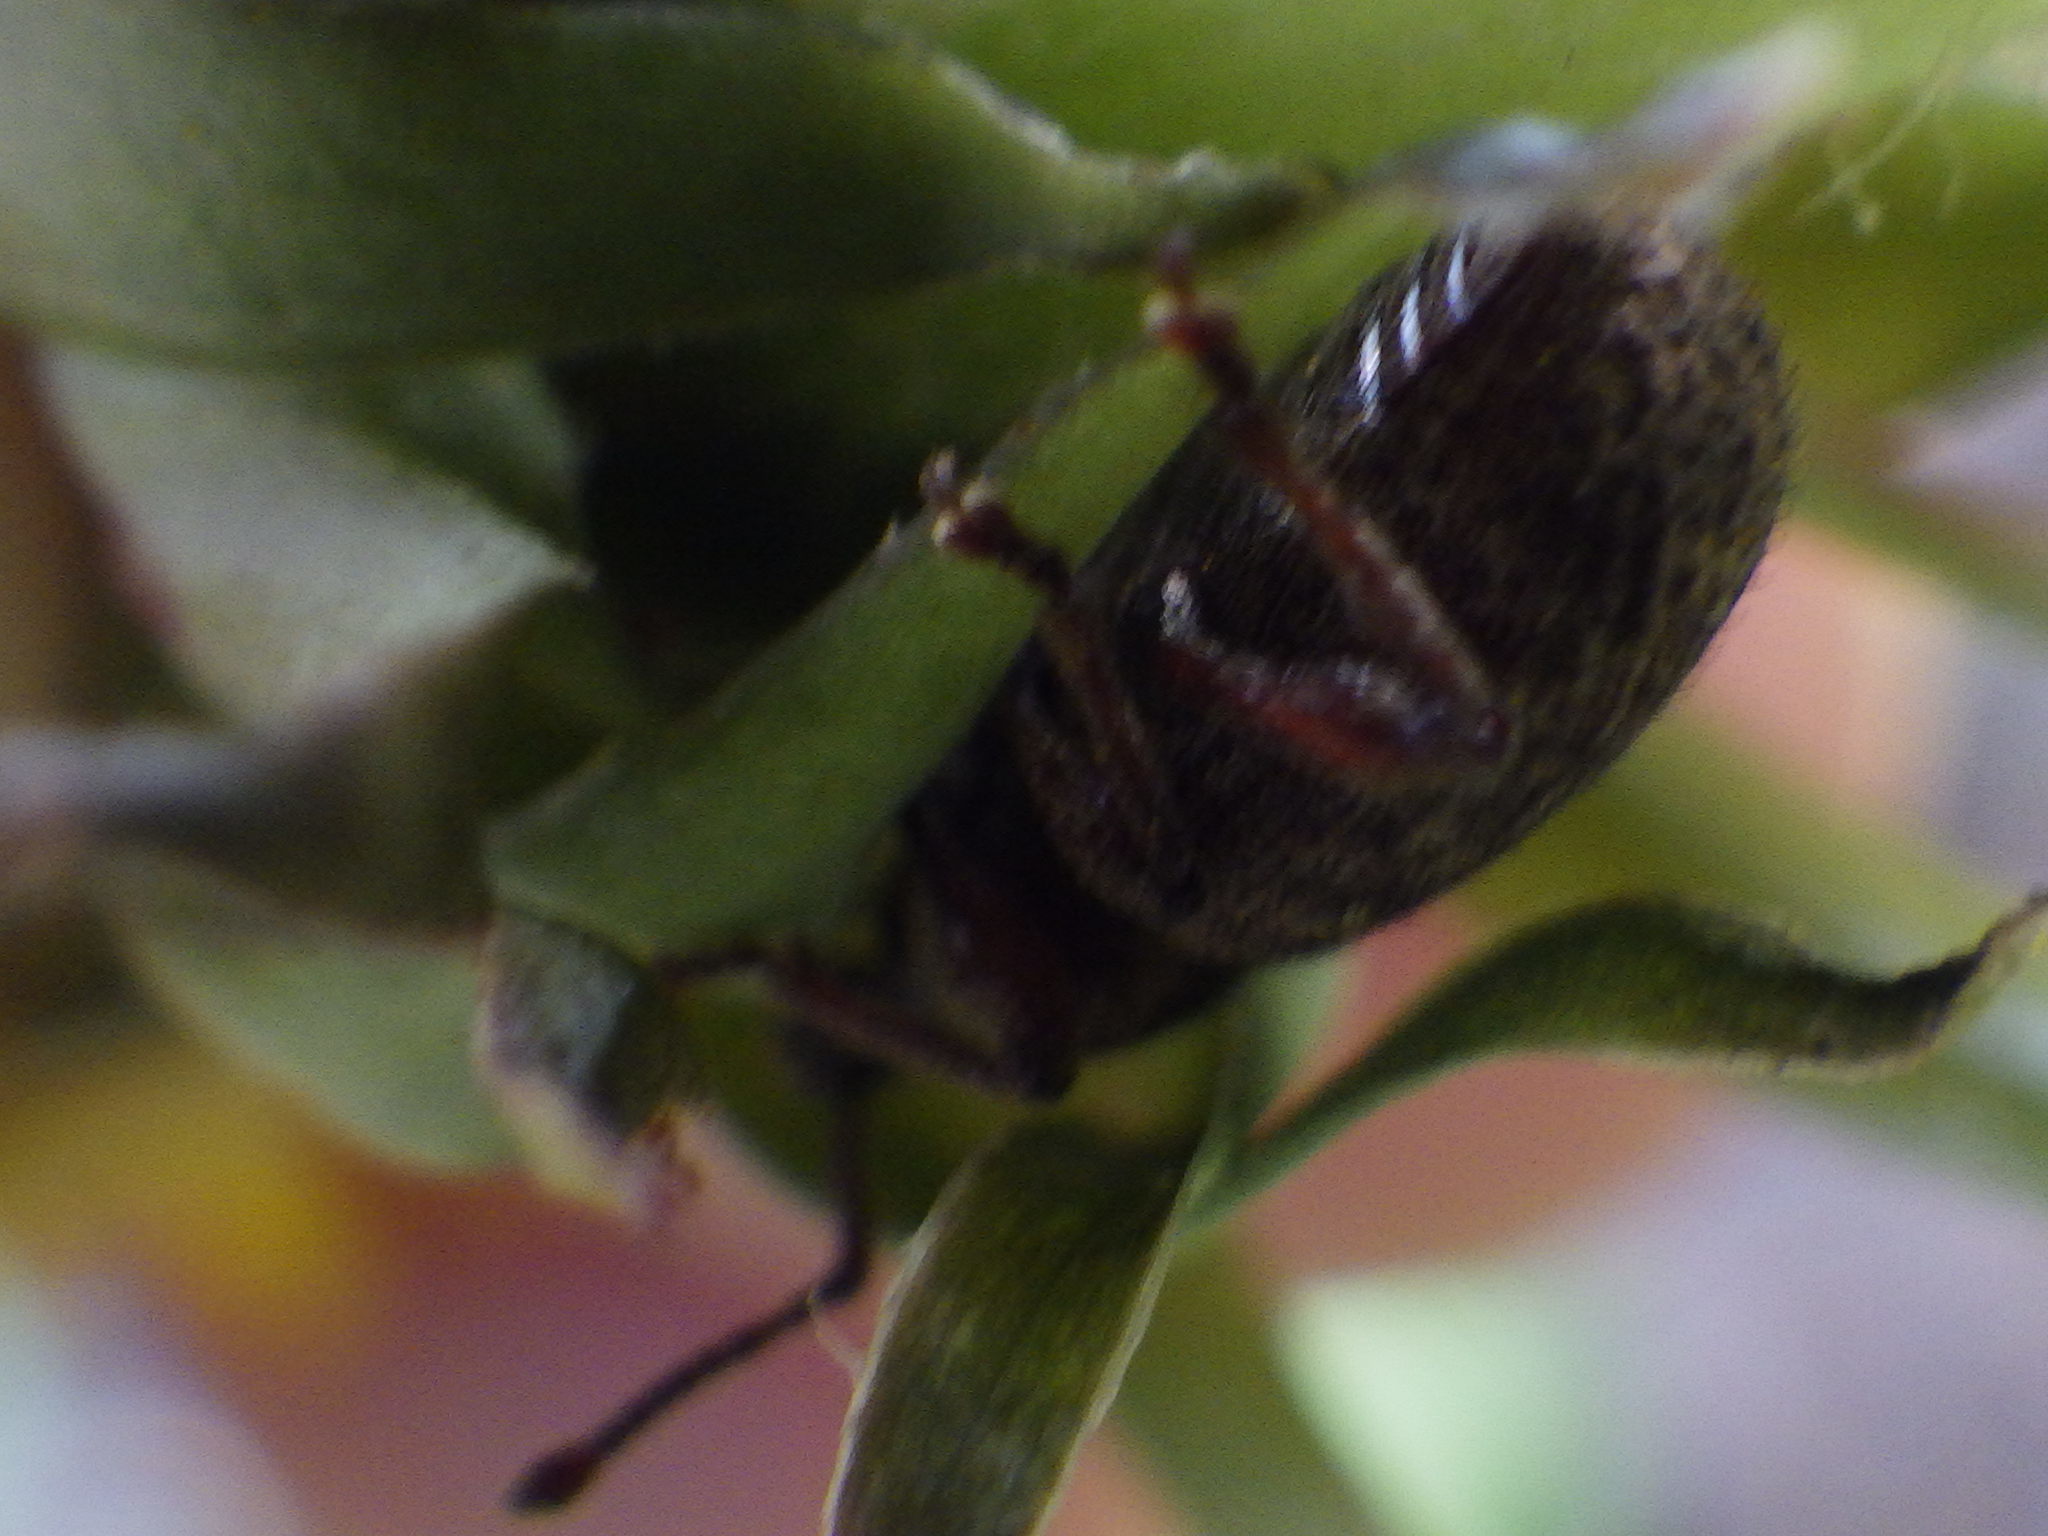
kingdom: Animalia
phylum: Arthropoda
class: Insecta
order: Coleoptera
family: Curculionidae
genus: Otiorhynchus
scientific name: Otiorhynchus singularis
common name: Clay-coloured weevil
